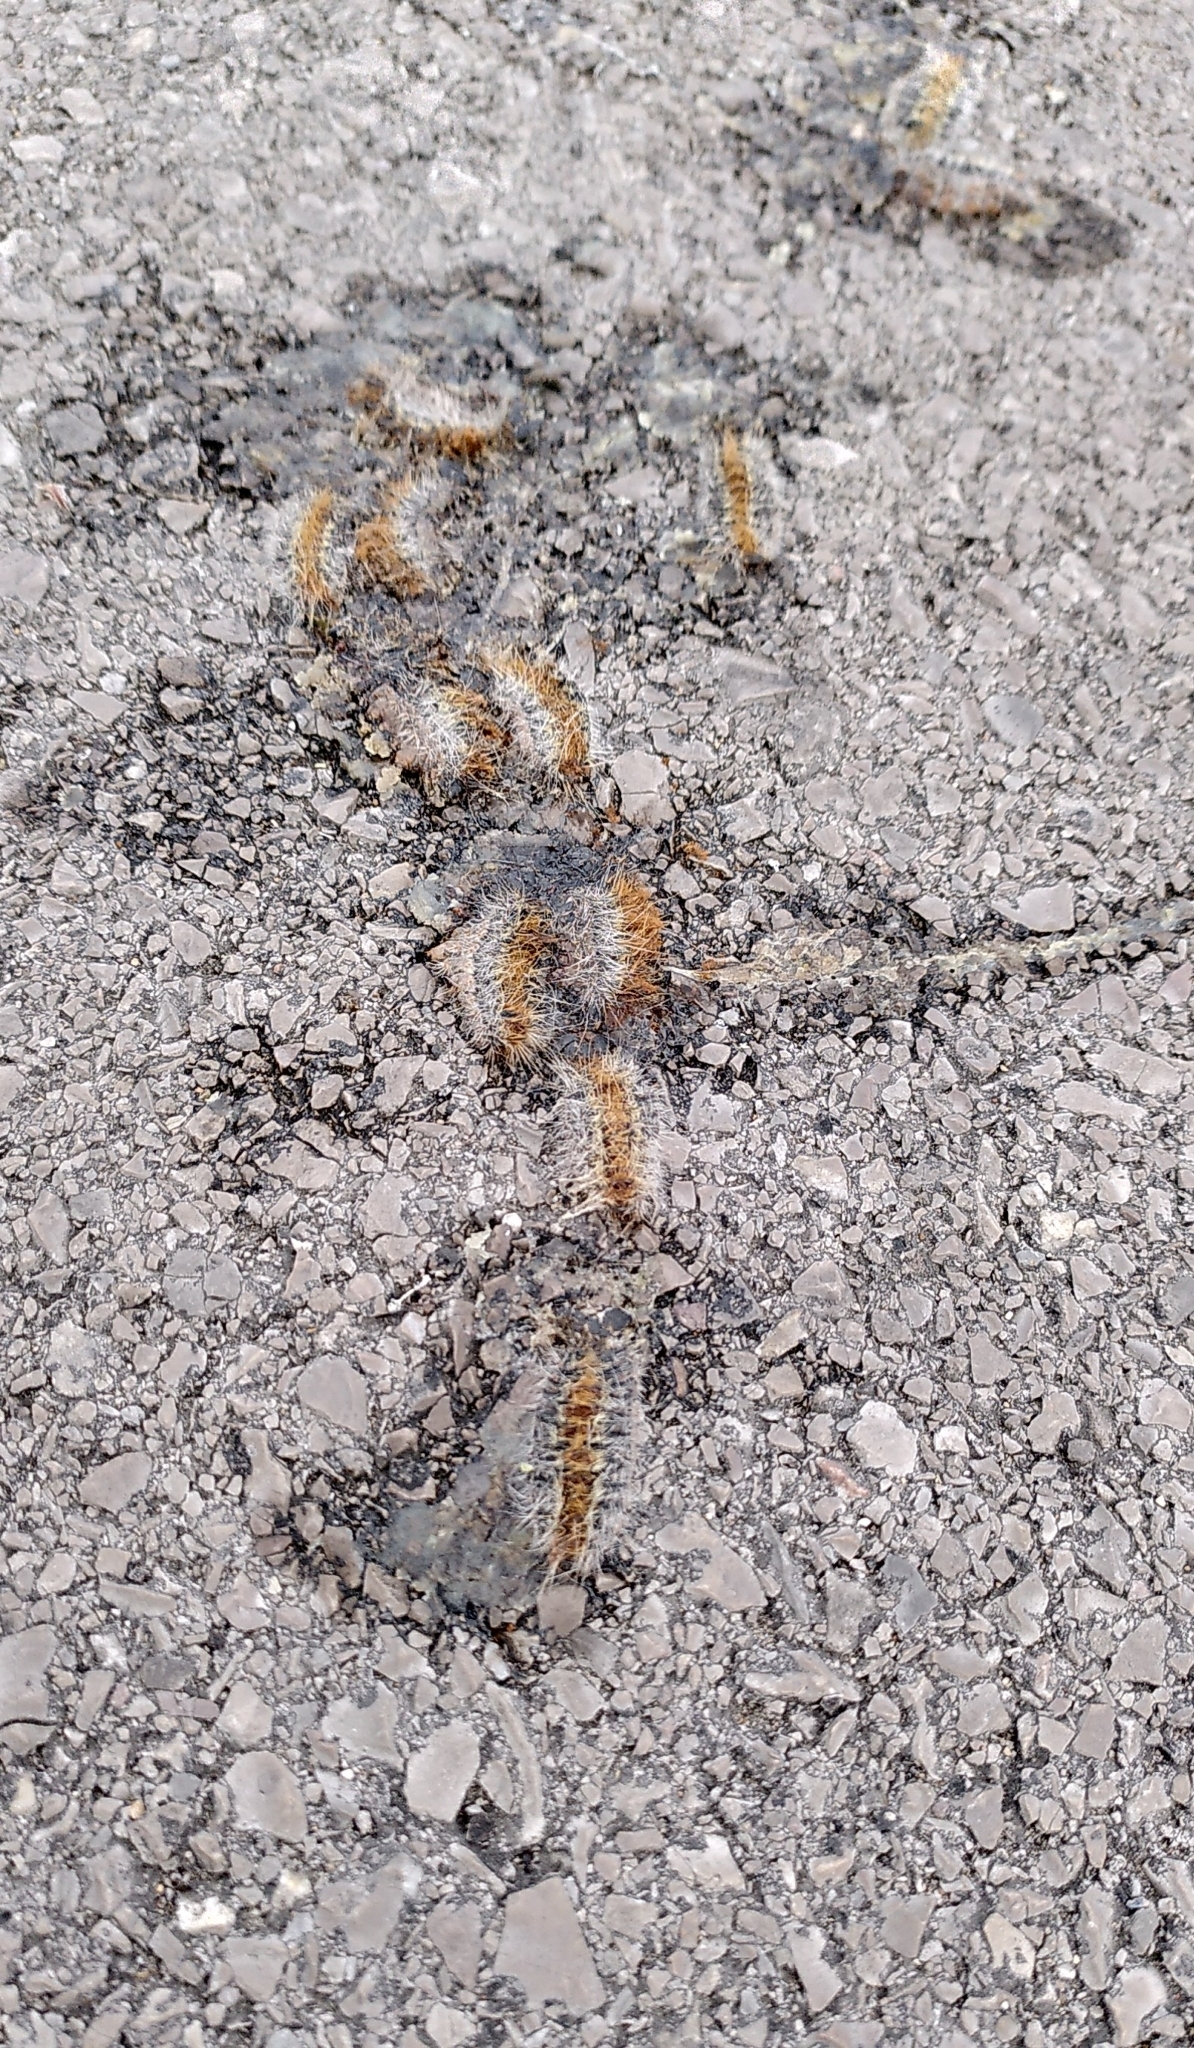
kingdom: Animalia
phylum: Arthropoda
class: Insecta
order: Lepidoptera
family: Notodontidae
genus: Thaumetopoea
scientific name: Thaumetopoea pityocampa
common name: Pine processionary
